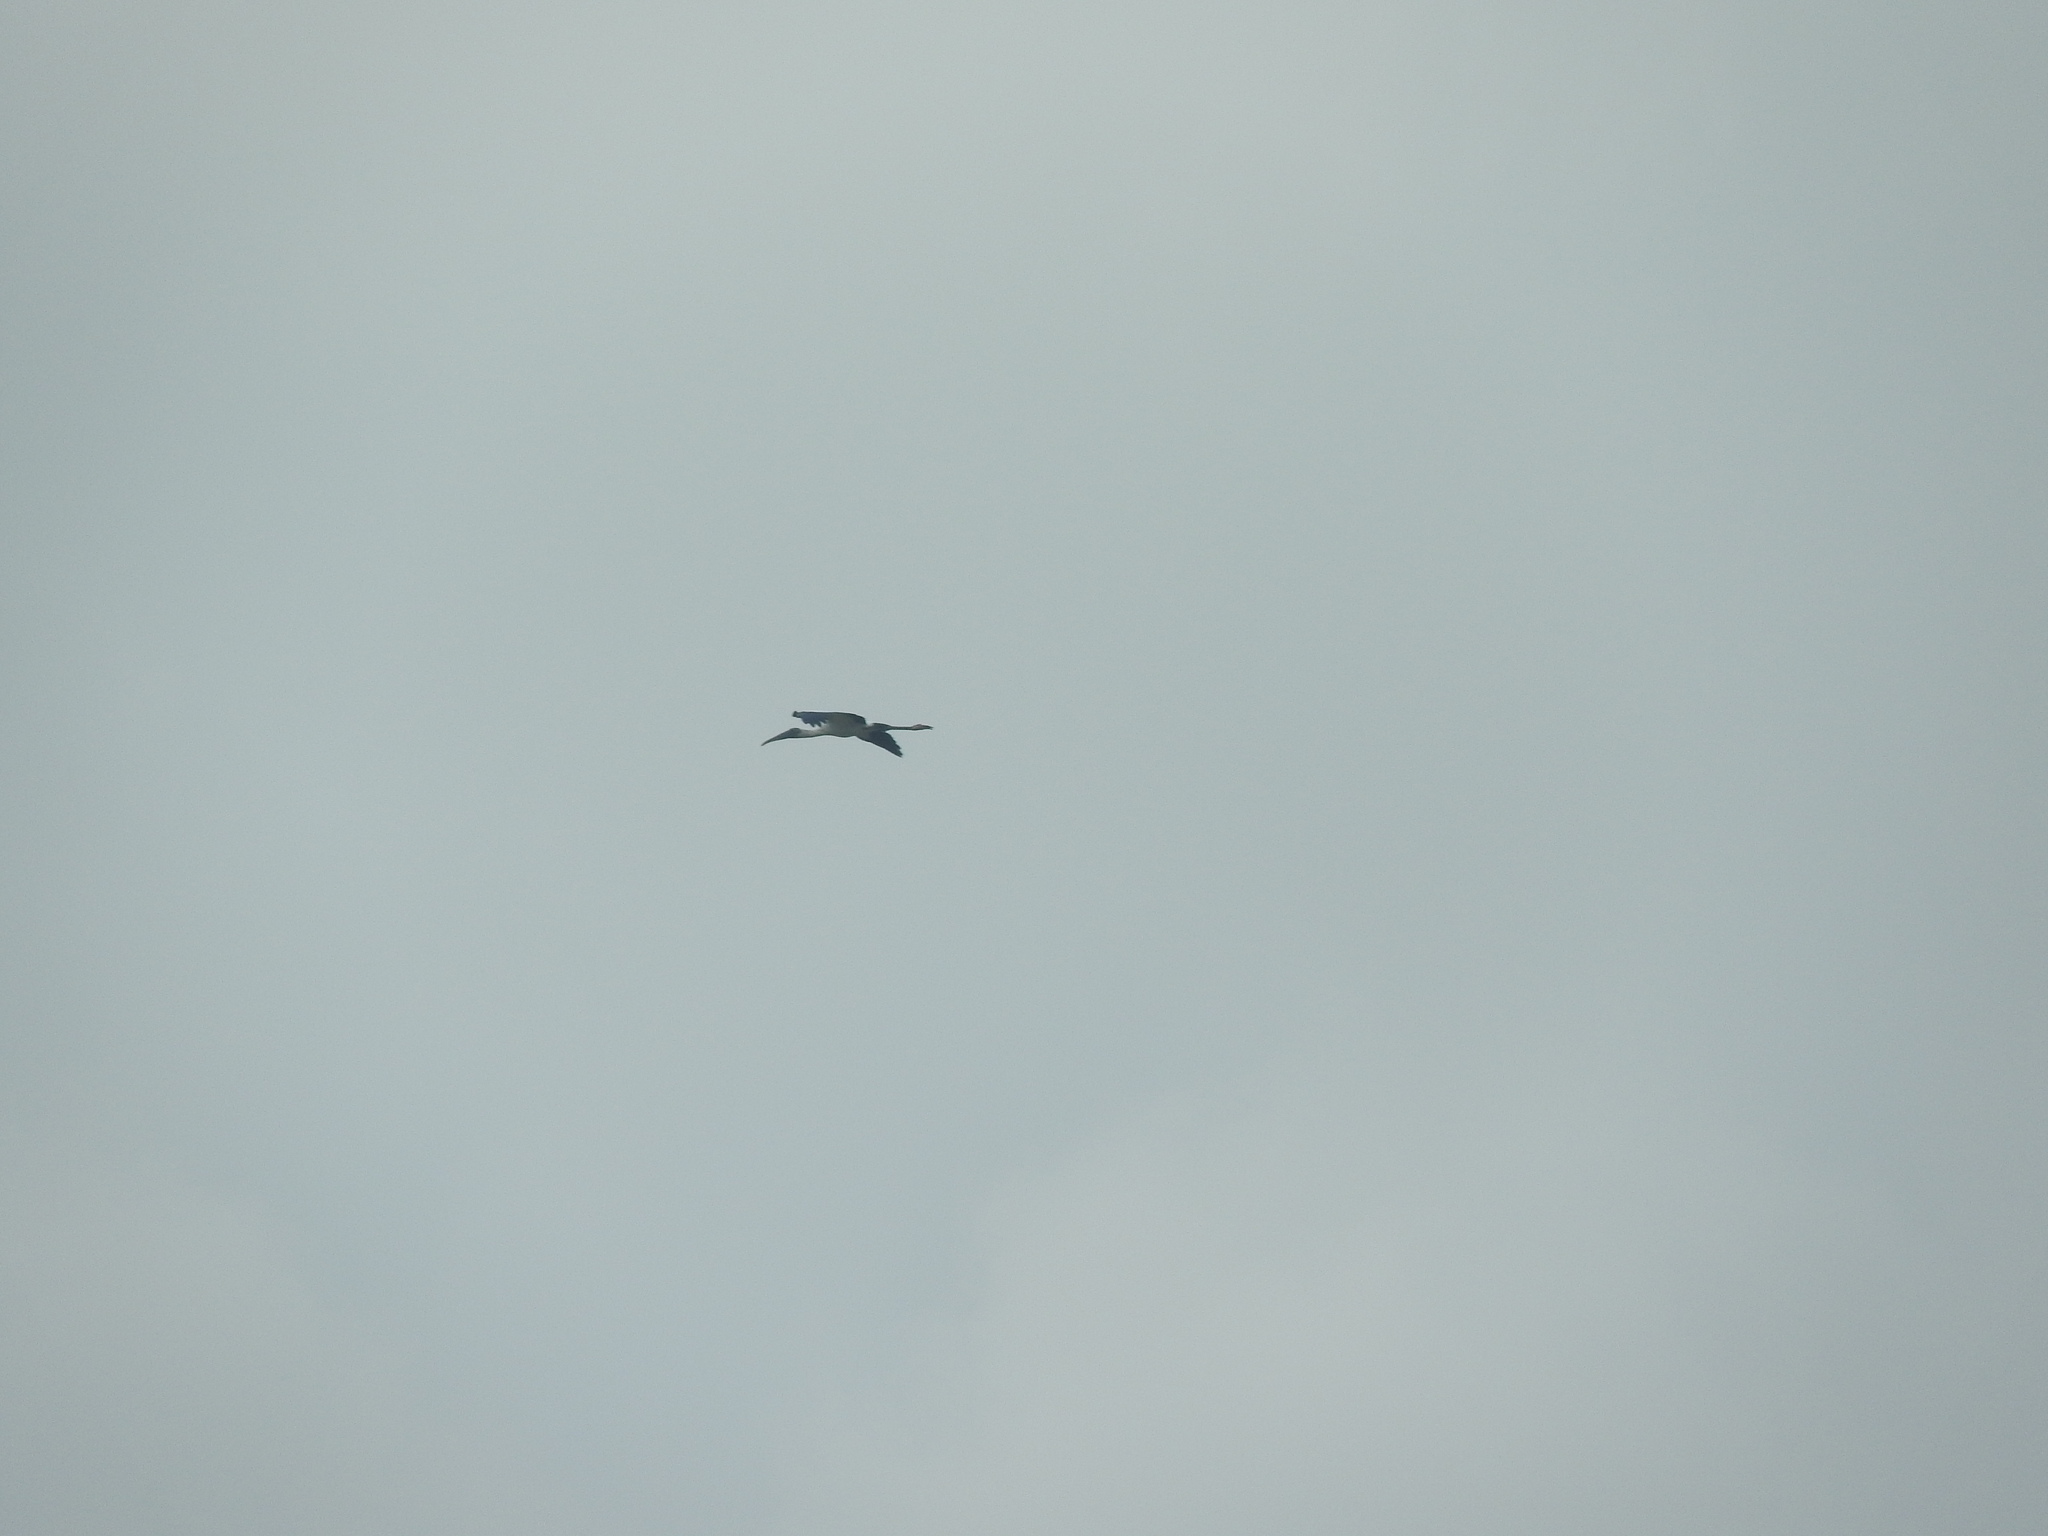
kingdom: Animalia
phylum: Chordata
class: Aves
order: Ciconiiformes
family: Ciconiidae
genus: Mycteria
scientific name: Mycteria americana
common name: Wood stork
